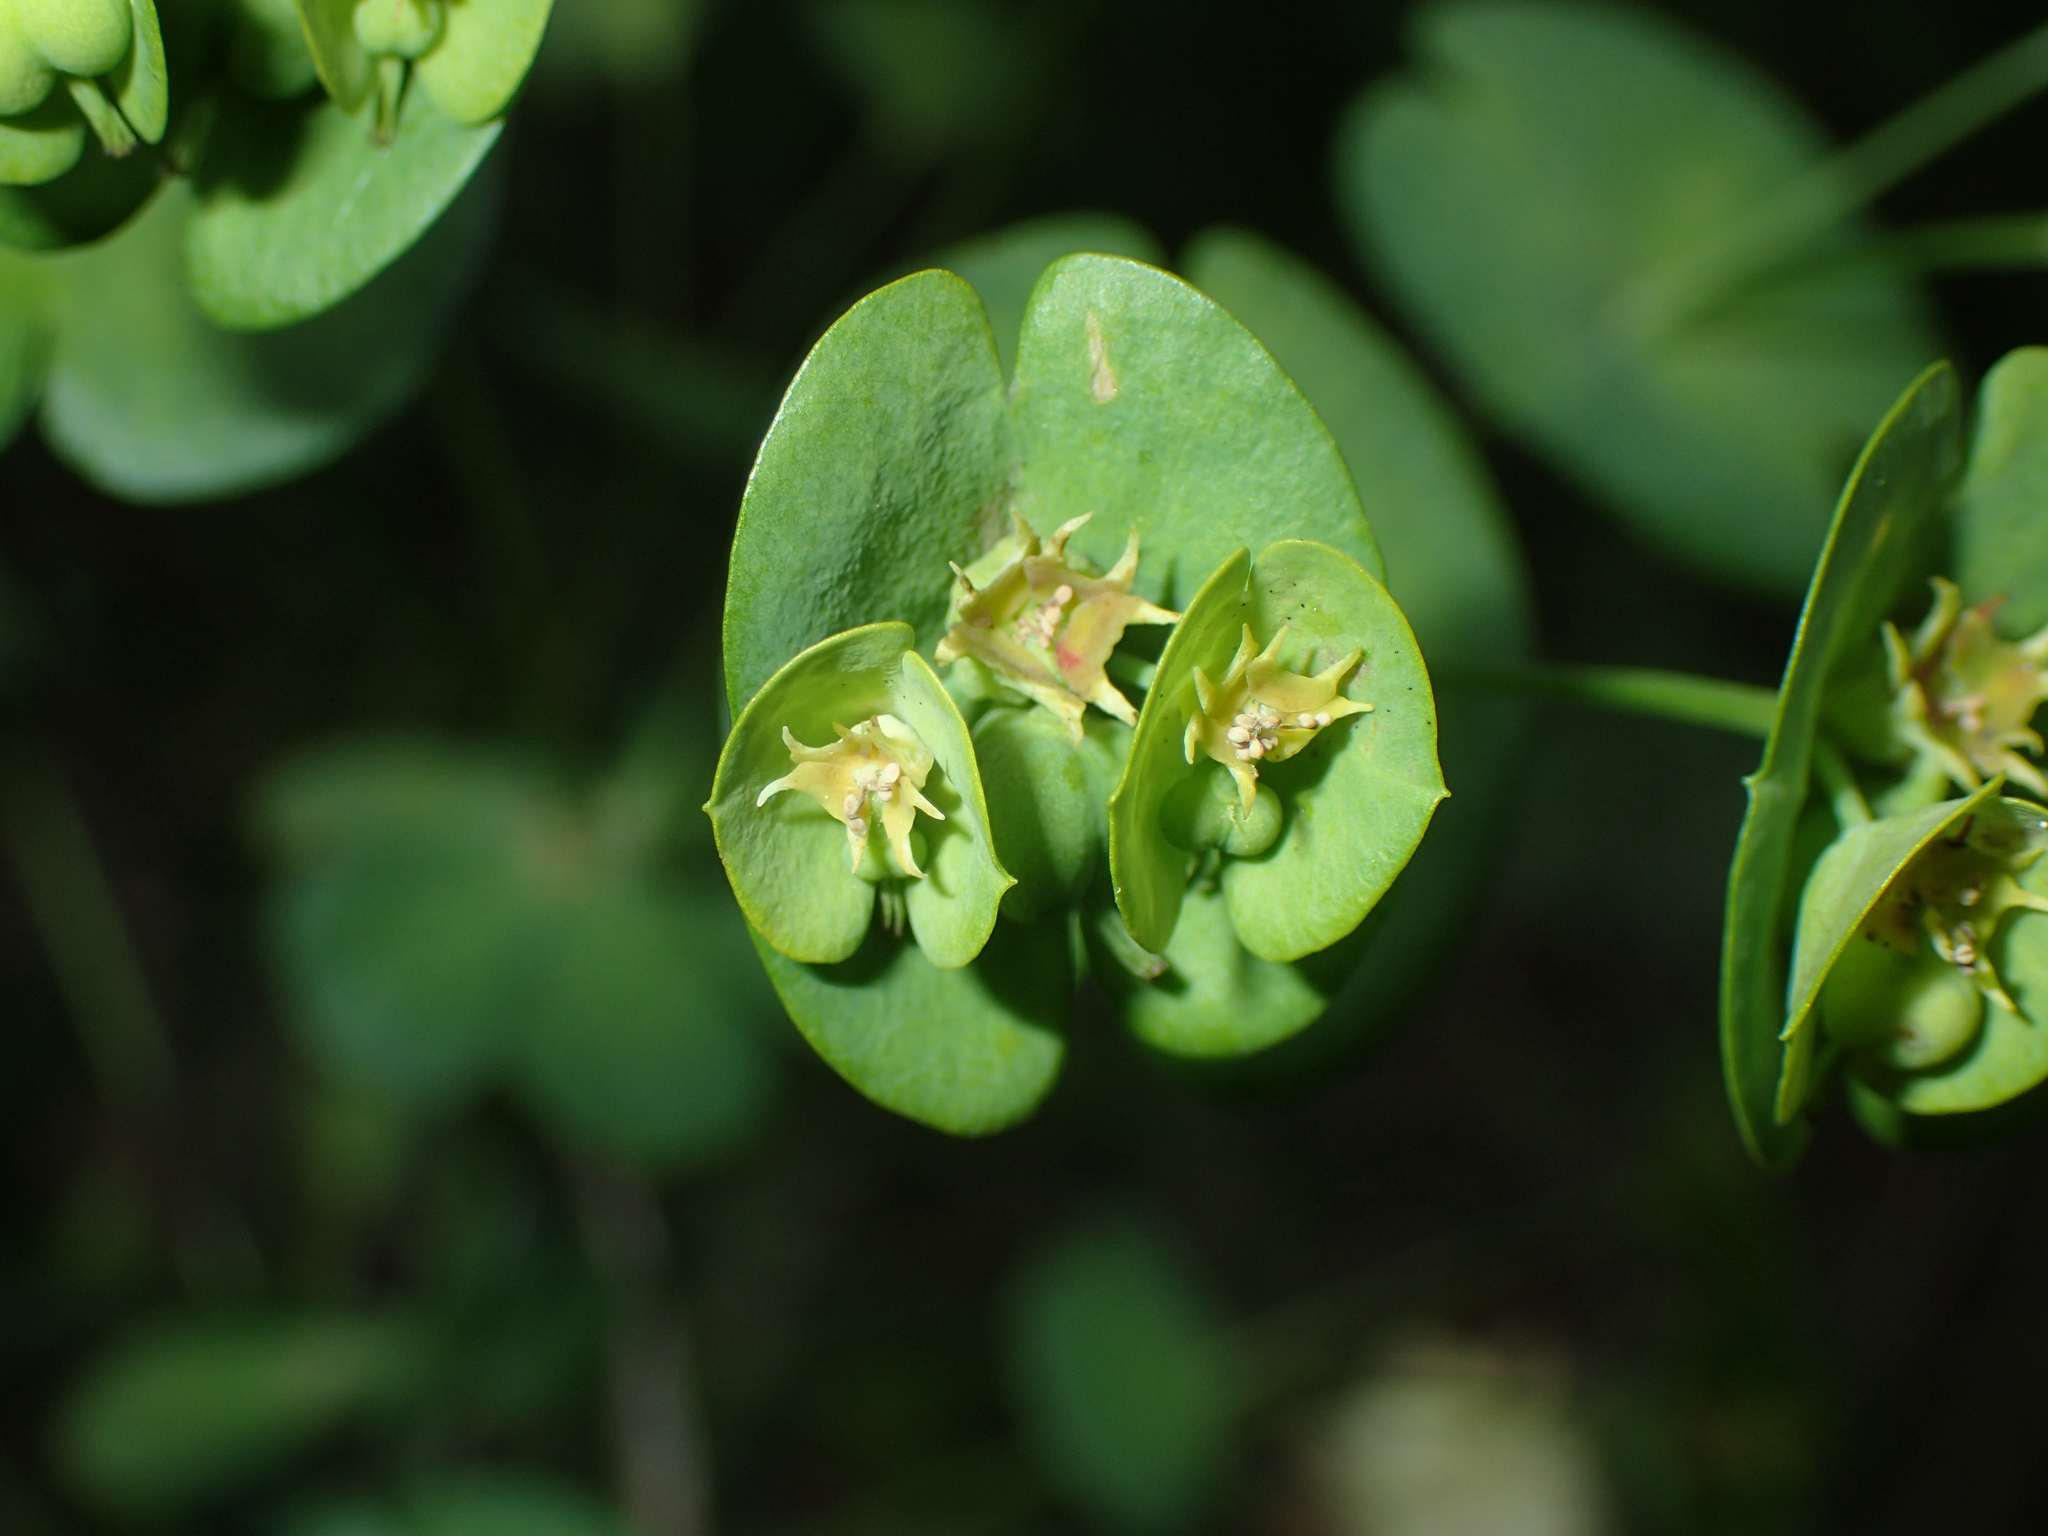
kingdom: Plantae
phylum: Tracheophyta
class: Magnoliopsida
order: Malpighiales
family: Euphorbiaceae
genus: Euphorbia
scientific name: Euphorbia amygdaloides
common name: Wood spurge
